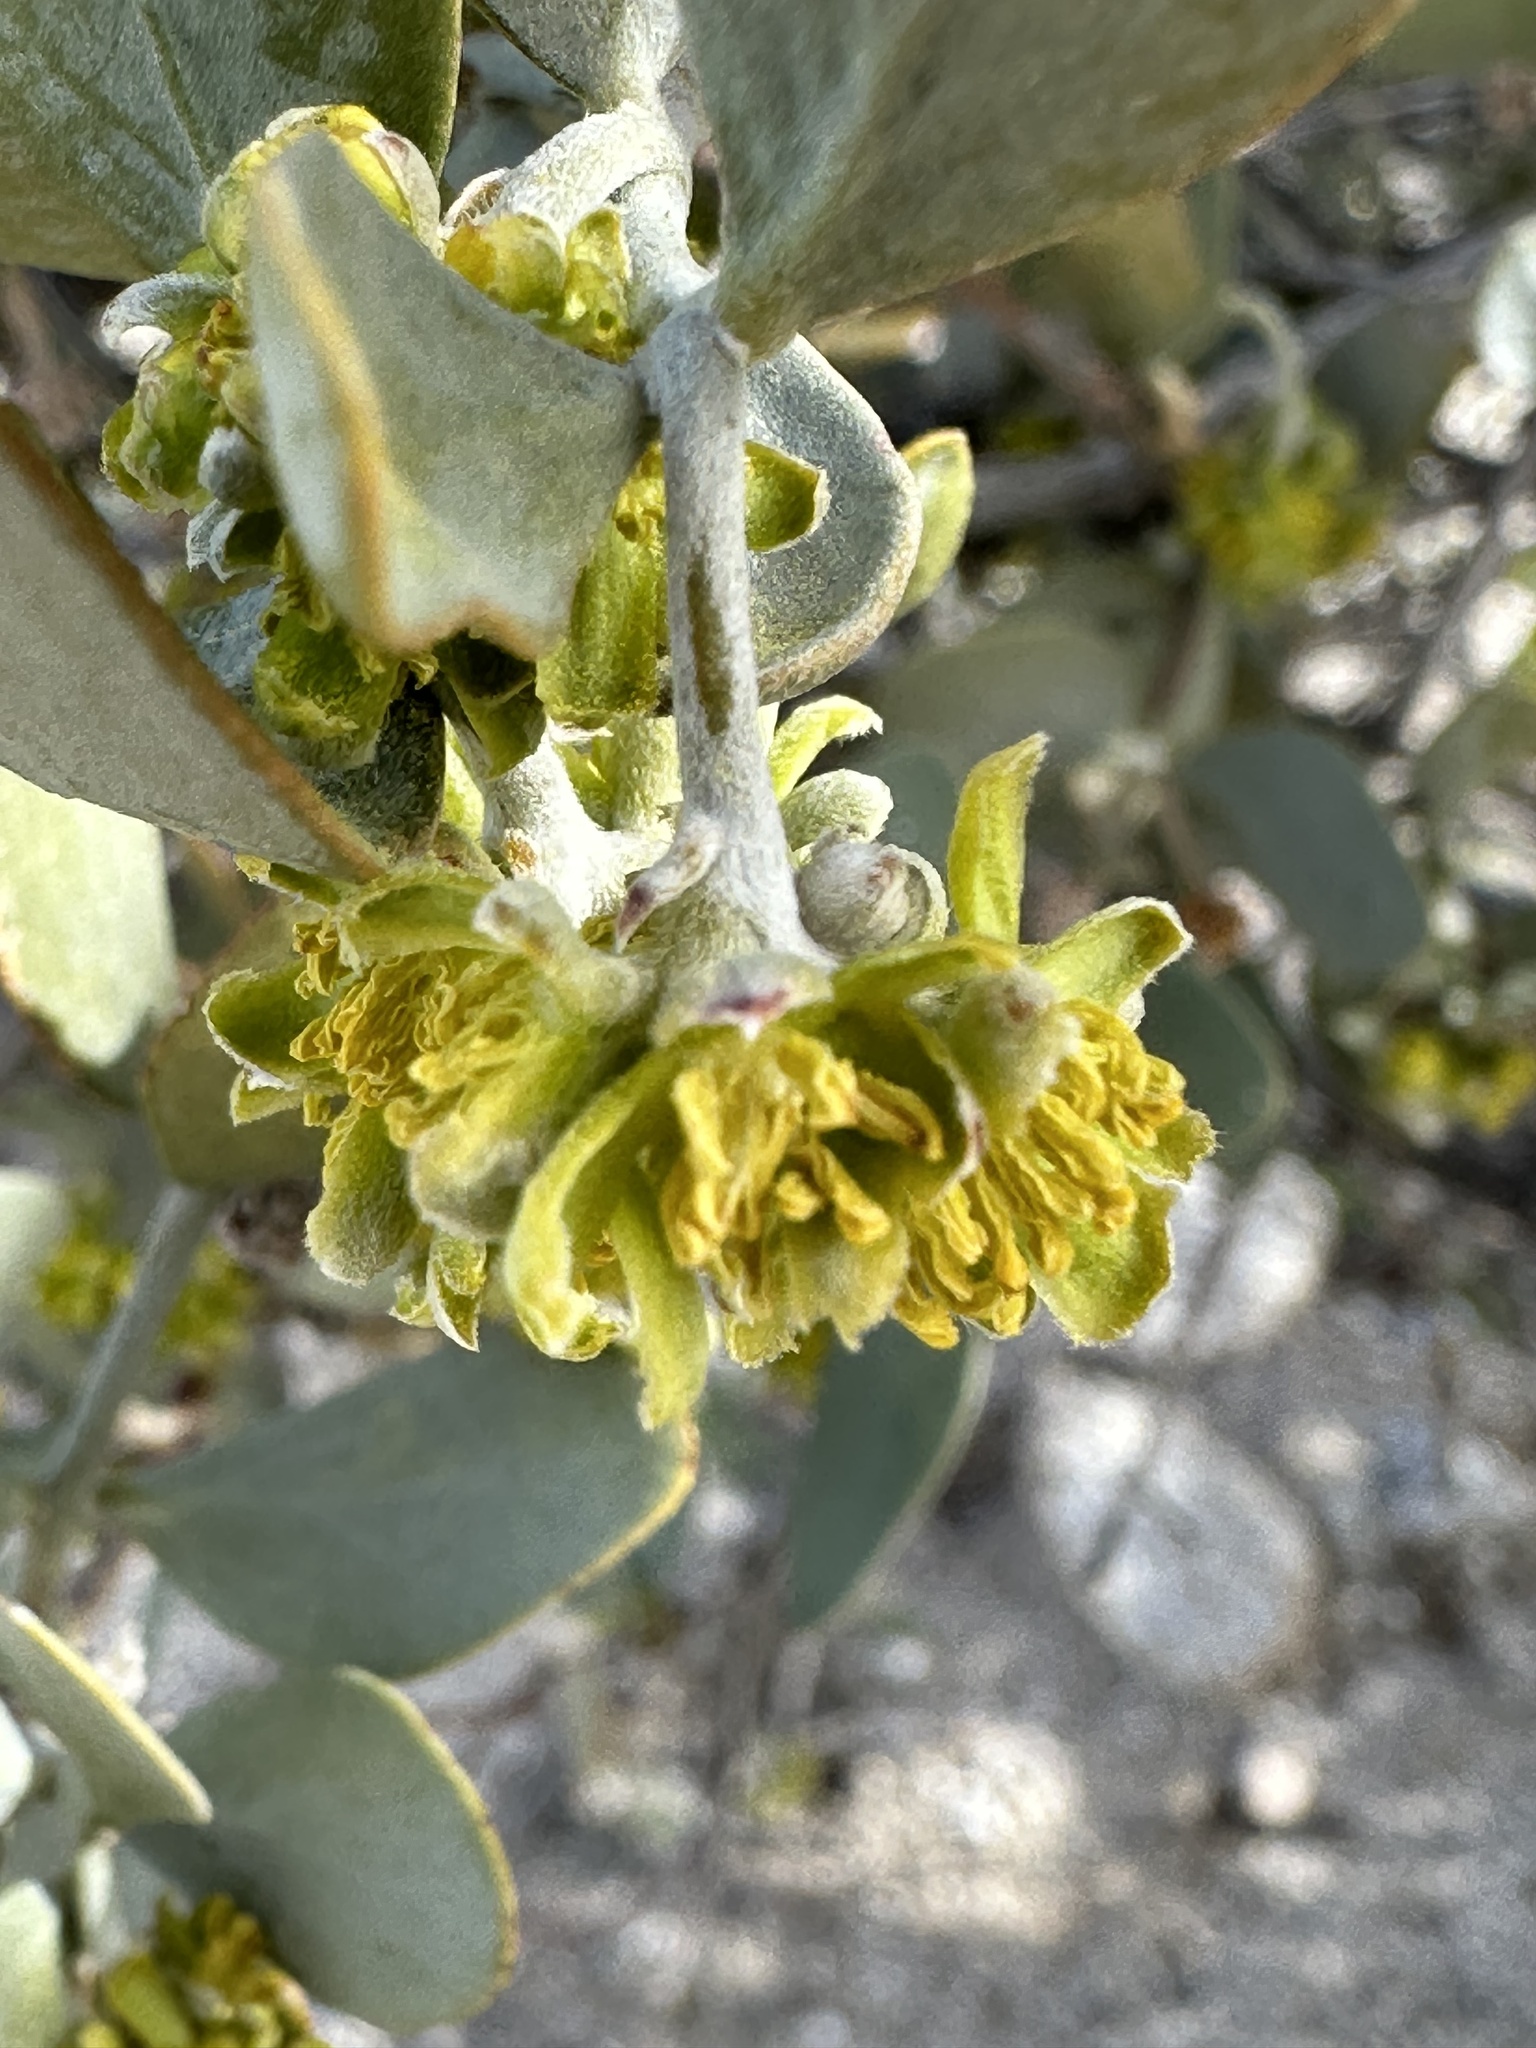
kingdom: Plantae
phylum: Tracheophyta
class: Magnoliopsida
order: Caryophyllales
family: Simmondsiaceae
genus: Simmondsia
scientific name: Simmondsia chinensis
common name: Jojoba
